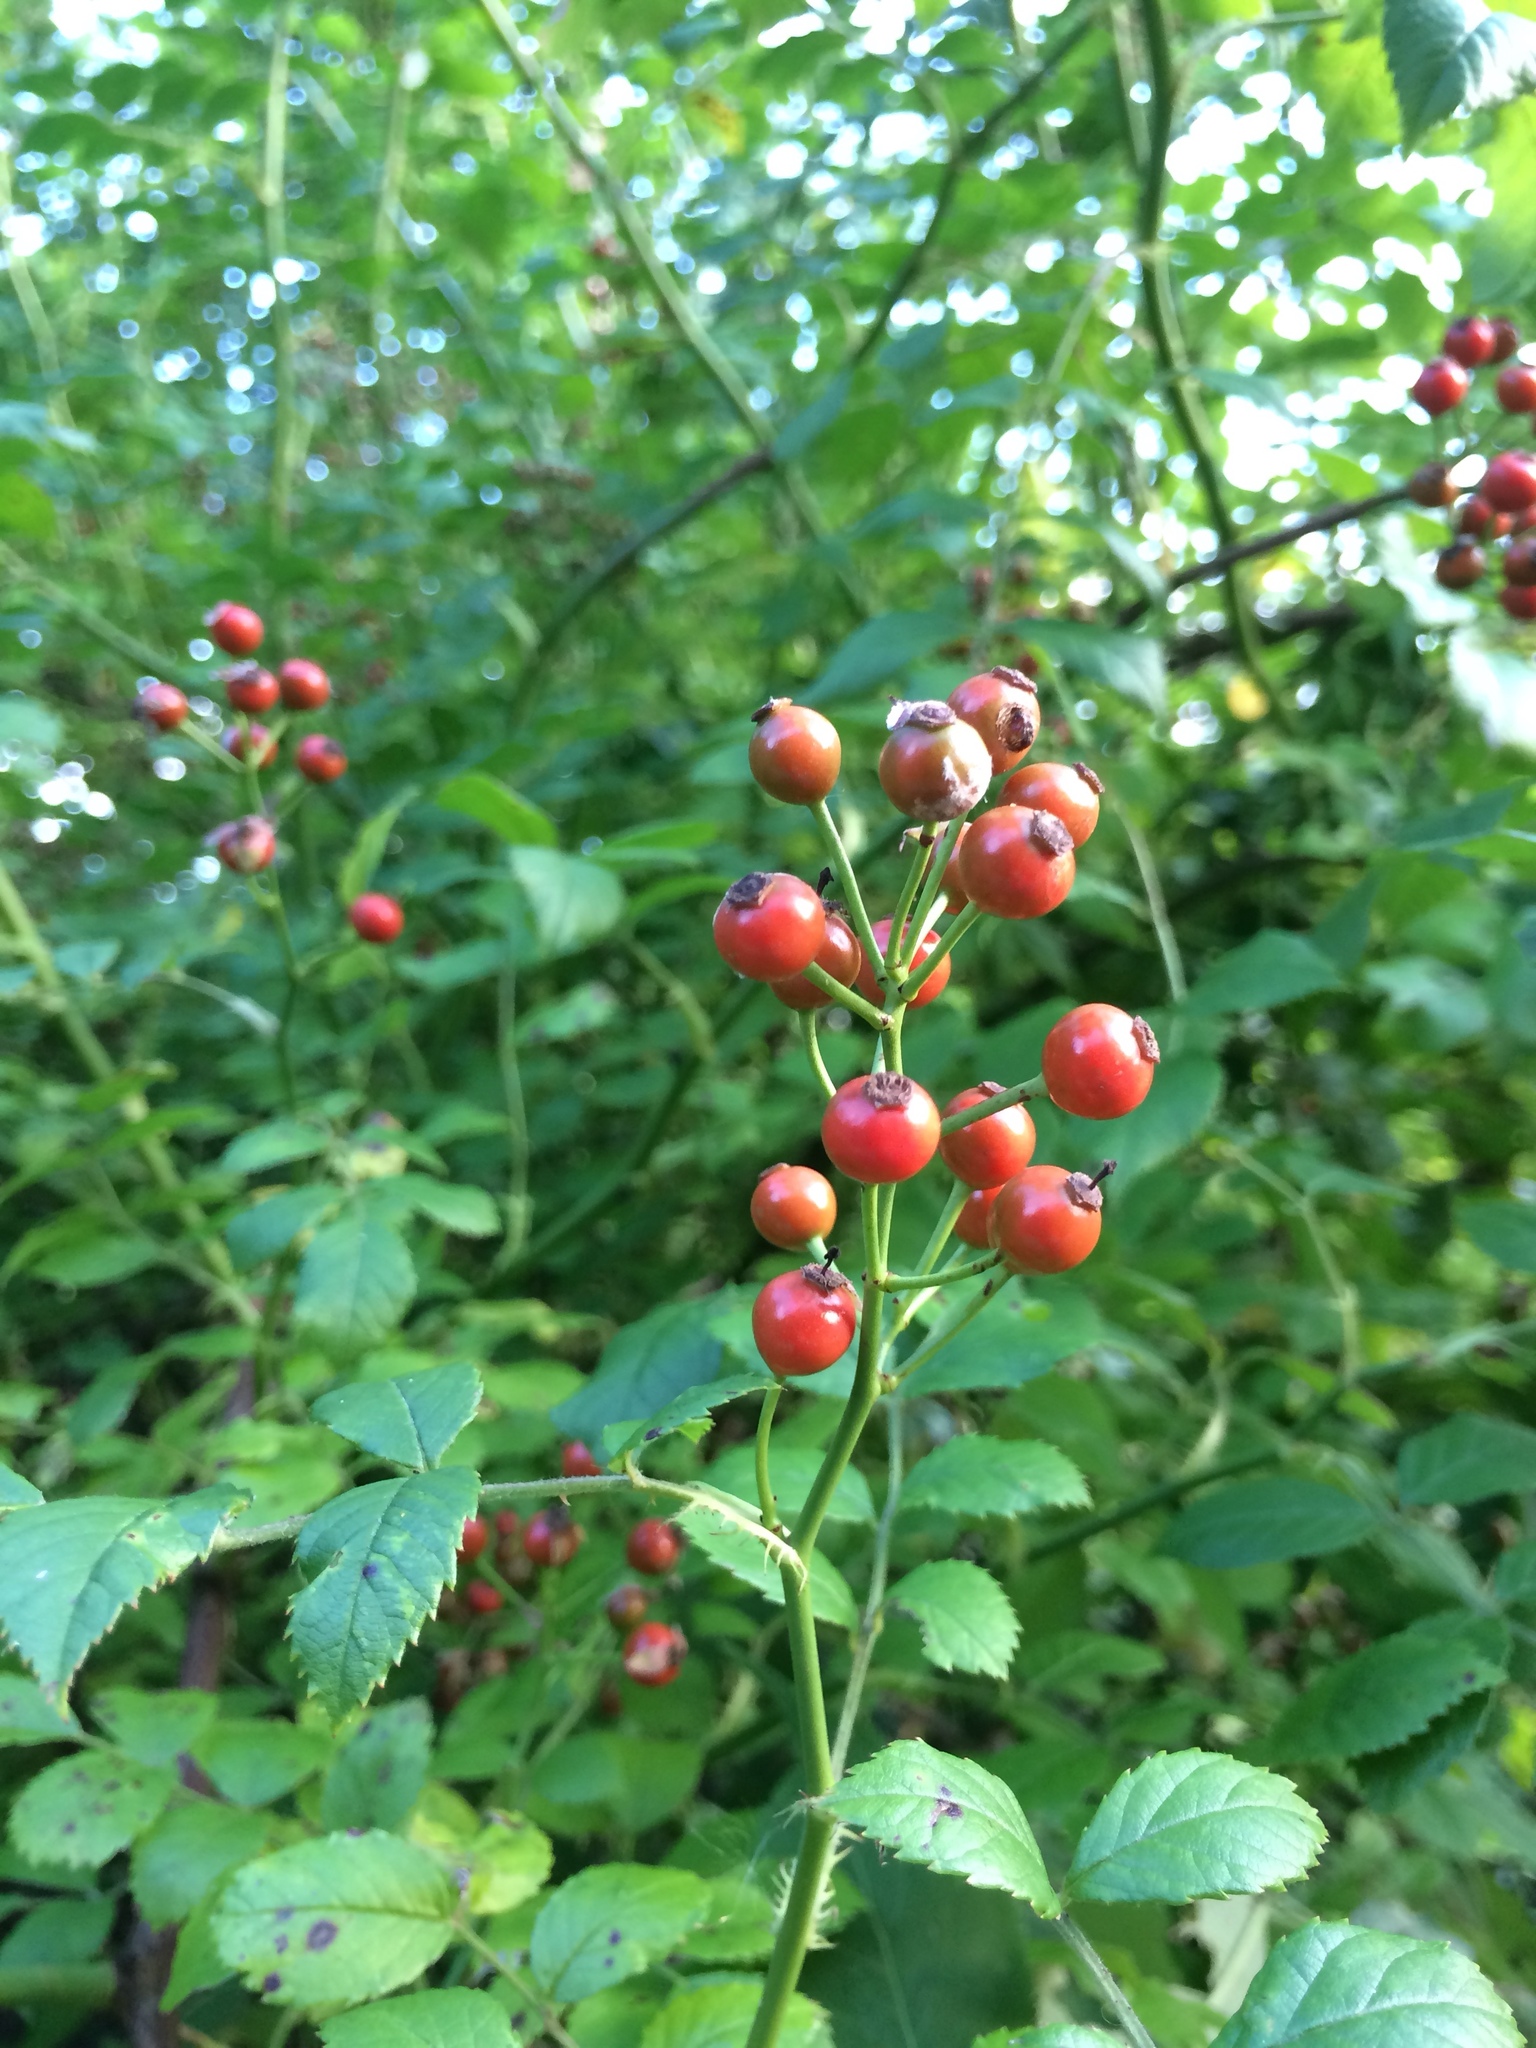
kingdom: Plantae
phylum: Tracheophyta
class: Magnoliopsida
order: Rosales
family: Rosaceae
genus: Rosa
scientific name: Rosa multiflora
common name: Multiflora rose
